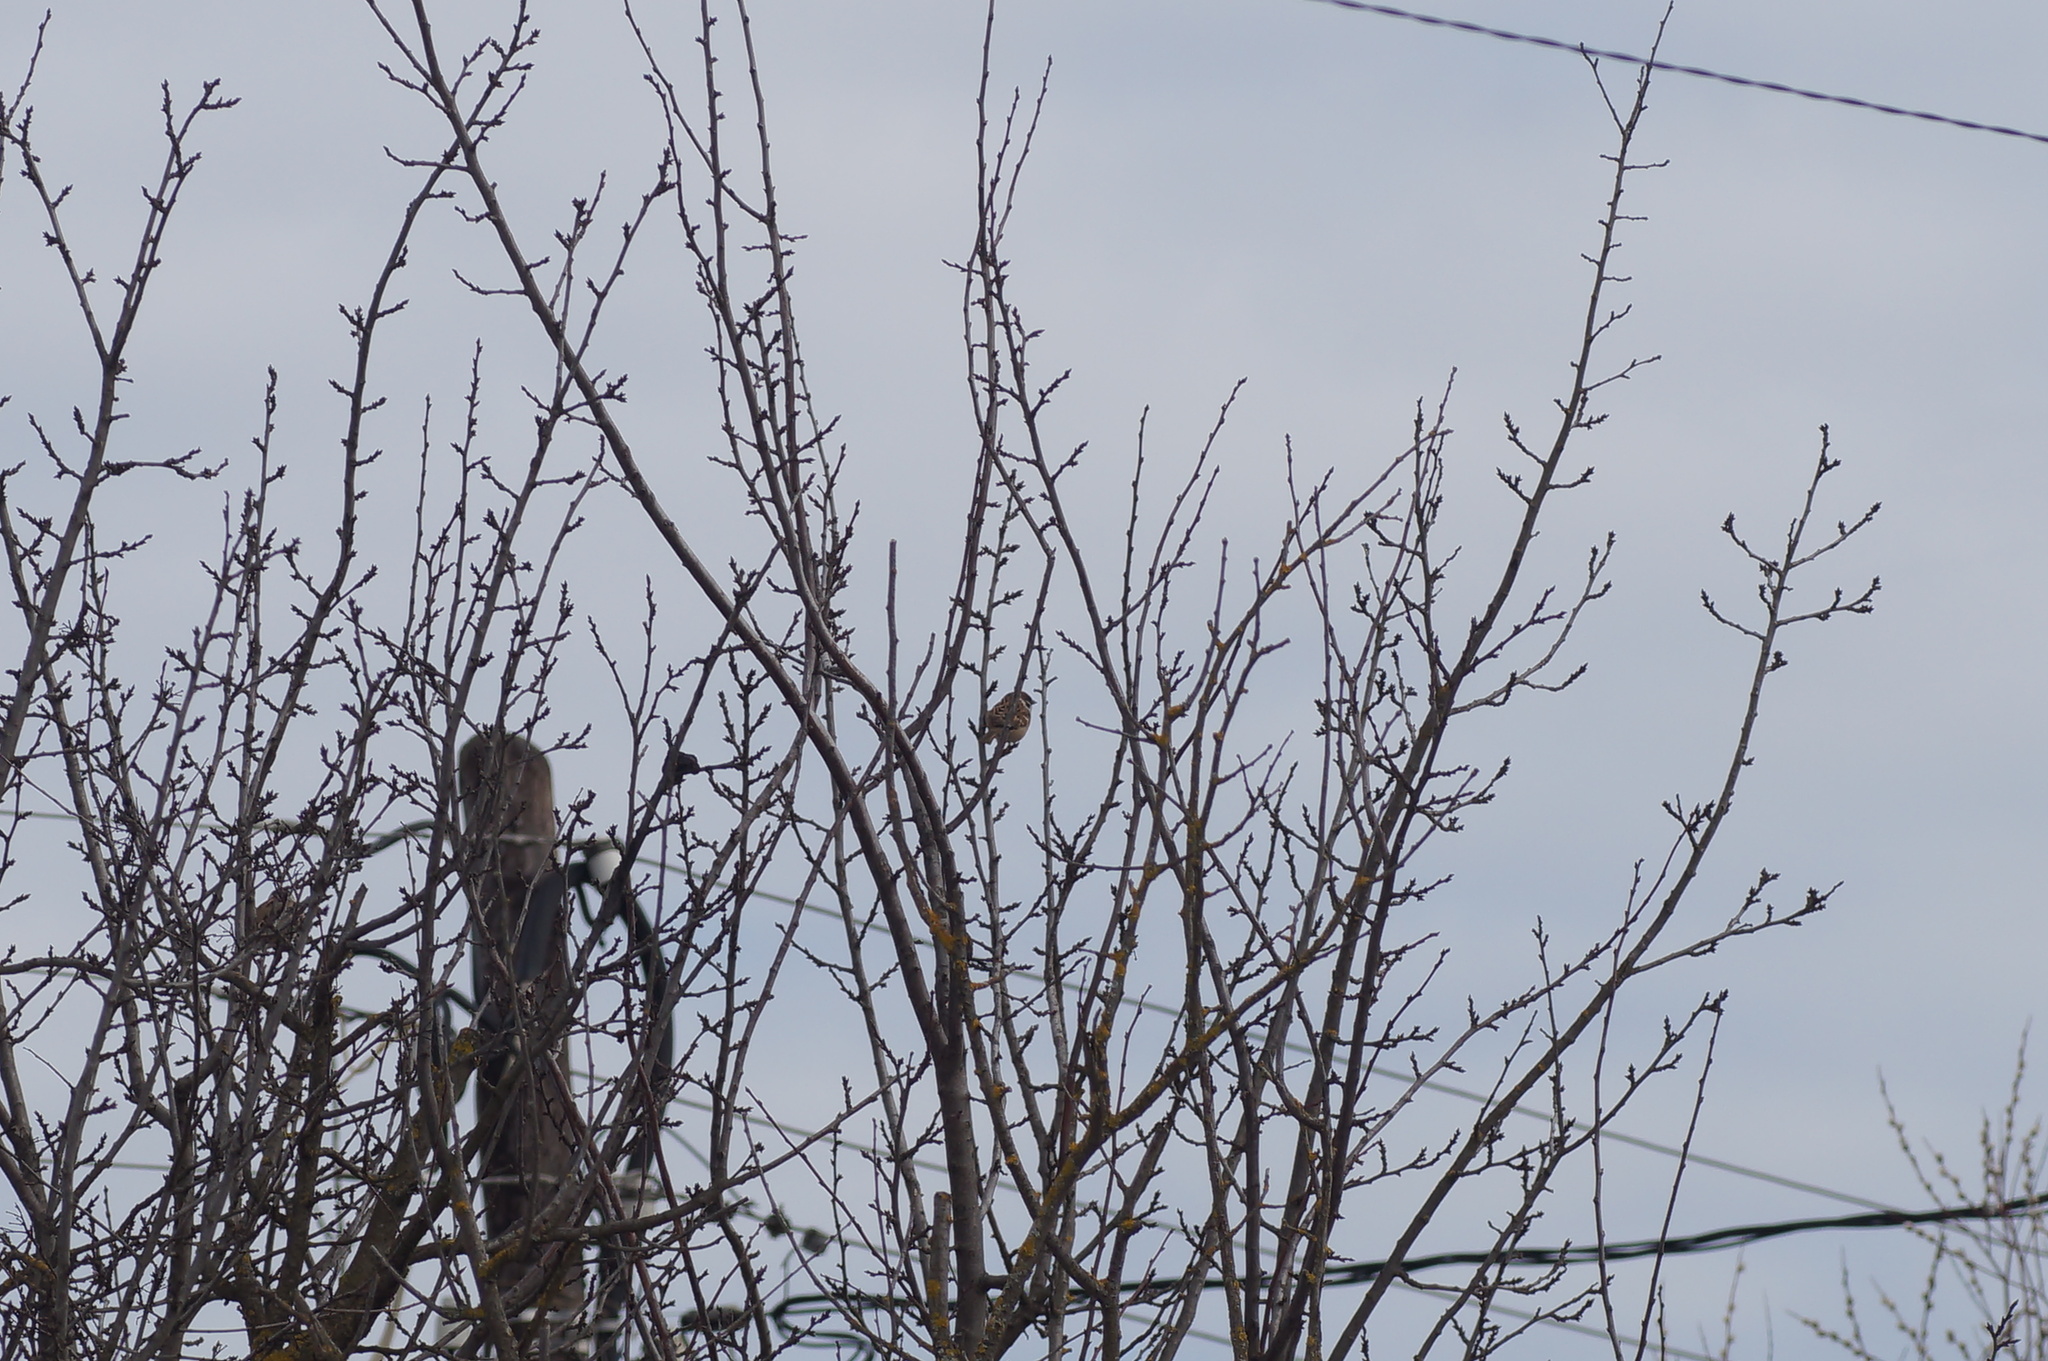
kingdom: Animalia
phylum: Chordata
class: Aves
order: Passeriformes
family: Passeridae
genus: Passer
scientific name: Passer montanus
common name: Eurasian tree sparrow
